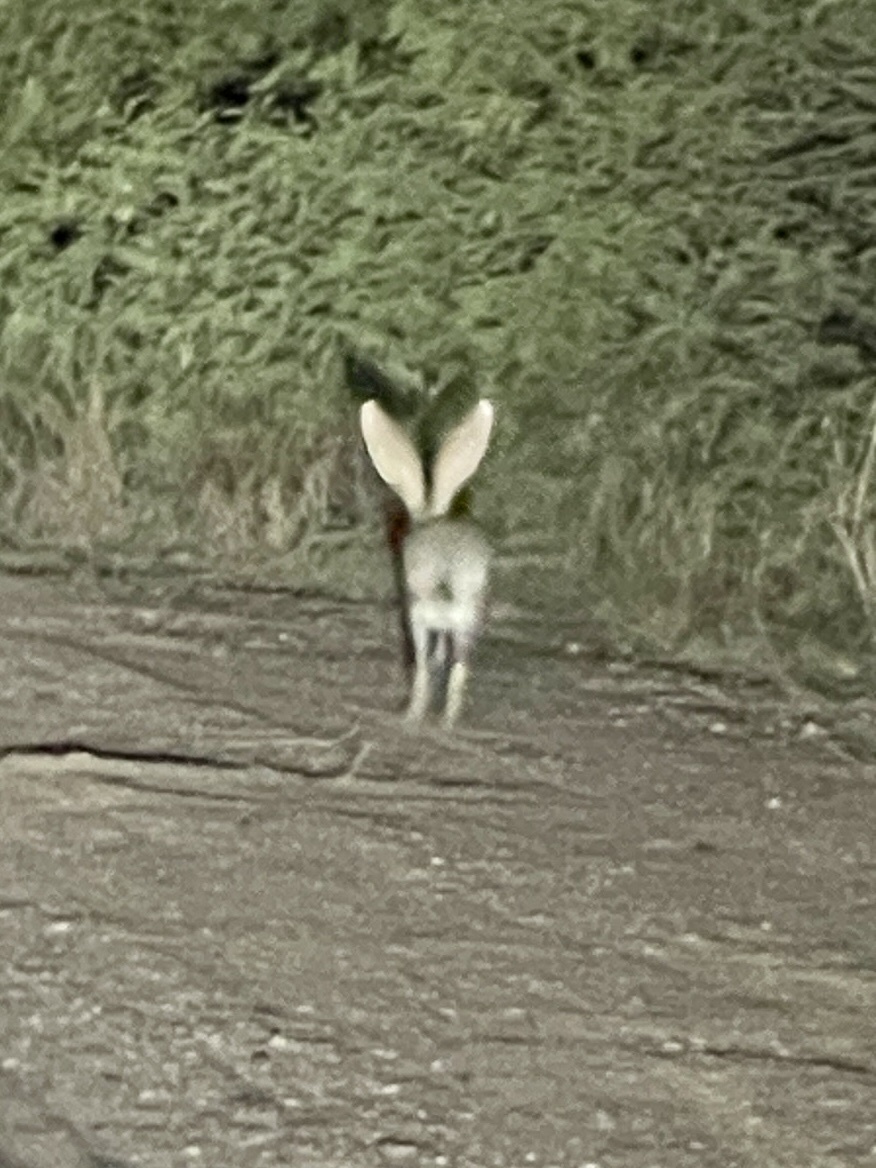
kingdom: Animalia
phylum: Chordata
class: Mammalia
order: Lagomorpha
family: Leporidae
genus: Lepus
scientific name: Lepus alleni
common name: Antelope jackrabbit
